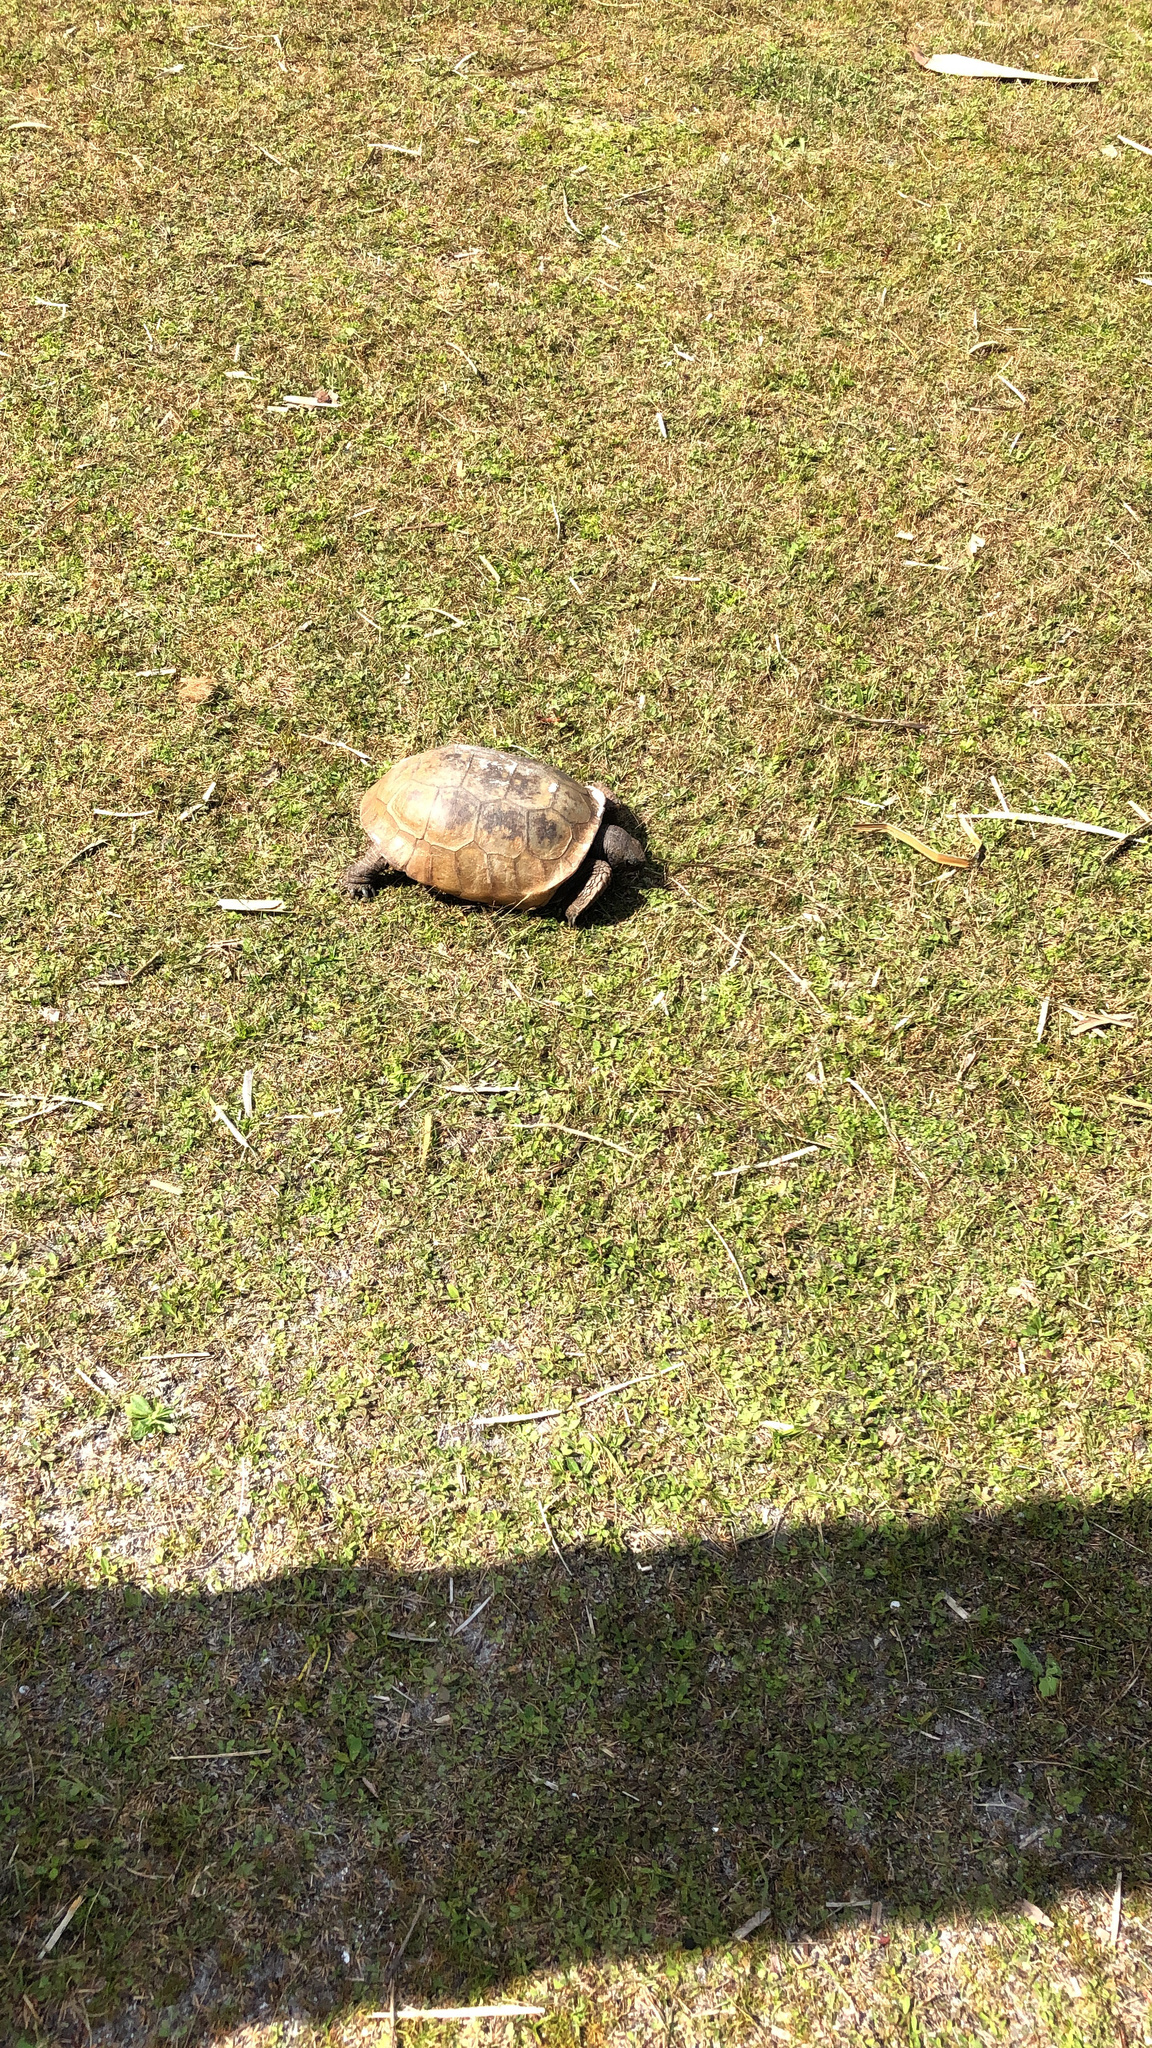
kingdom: Animalia
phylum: Chordata
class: Testudines
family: Testudinidae
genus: Gopherus
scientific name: Gopherus polyphemus
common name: Florida gopher tortoise
